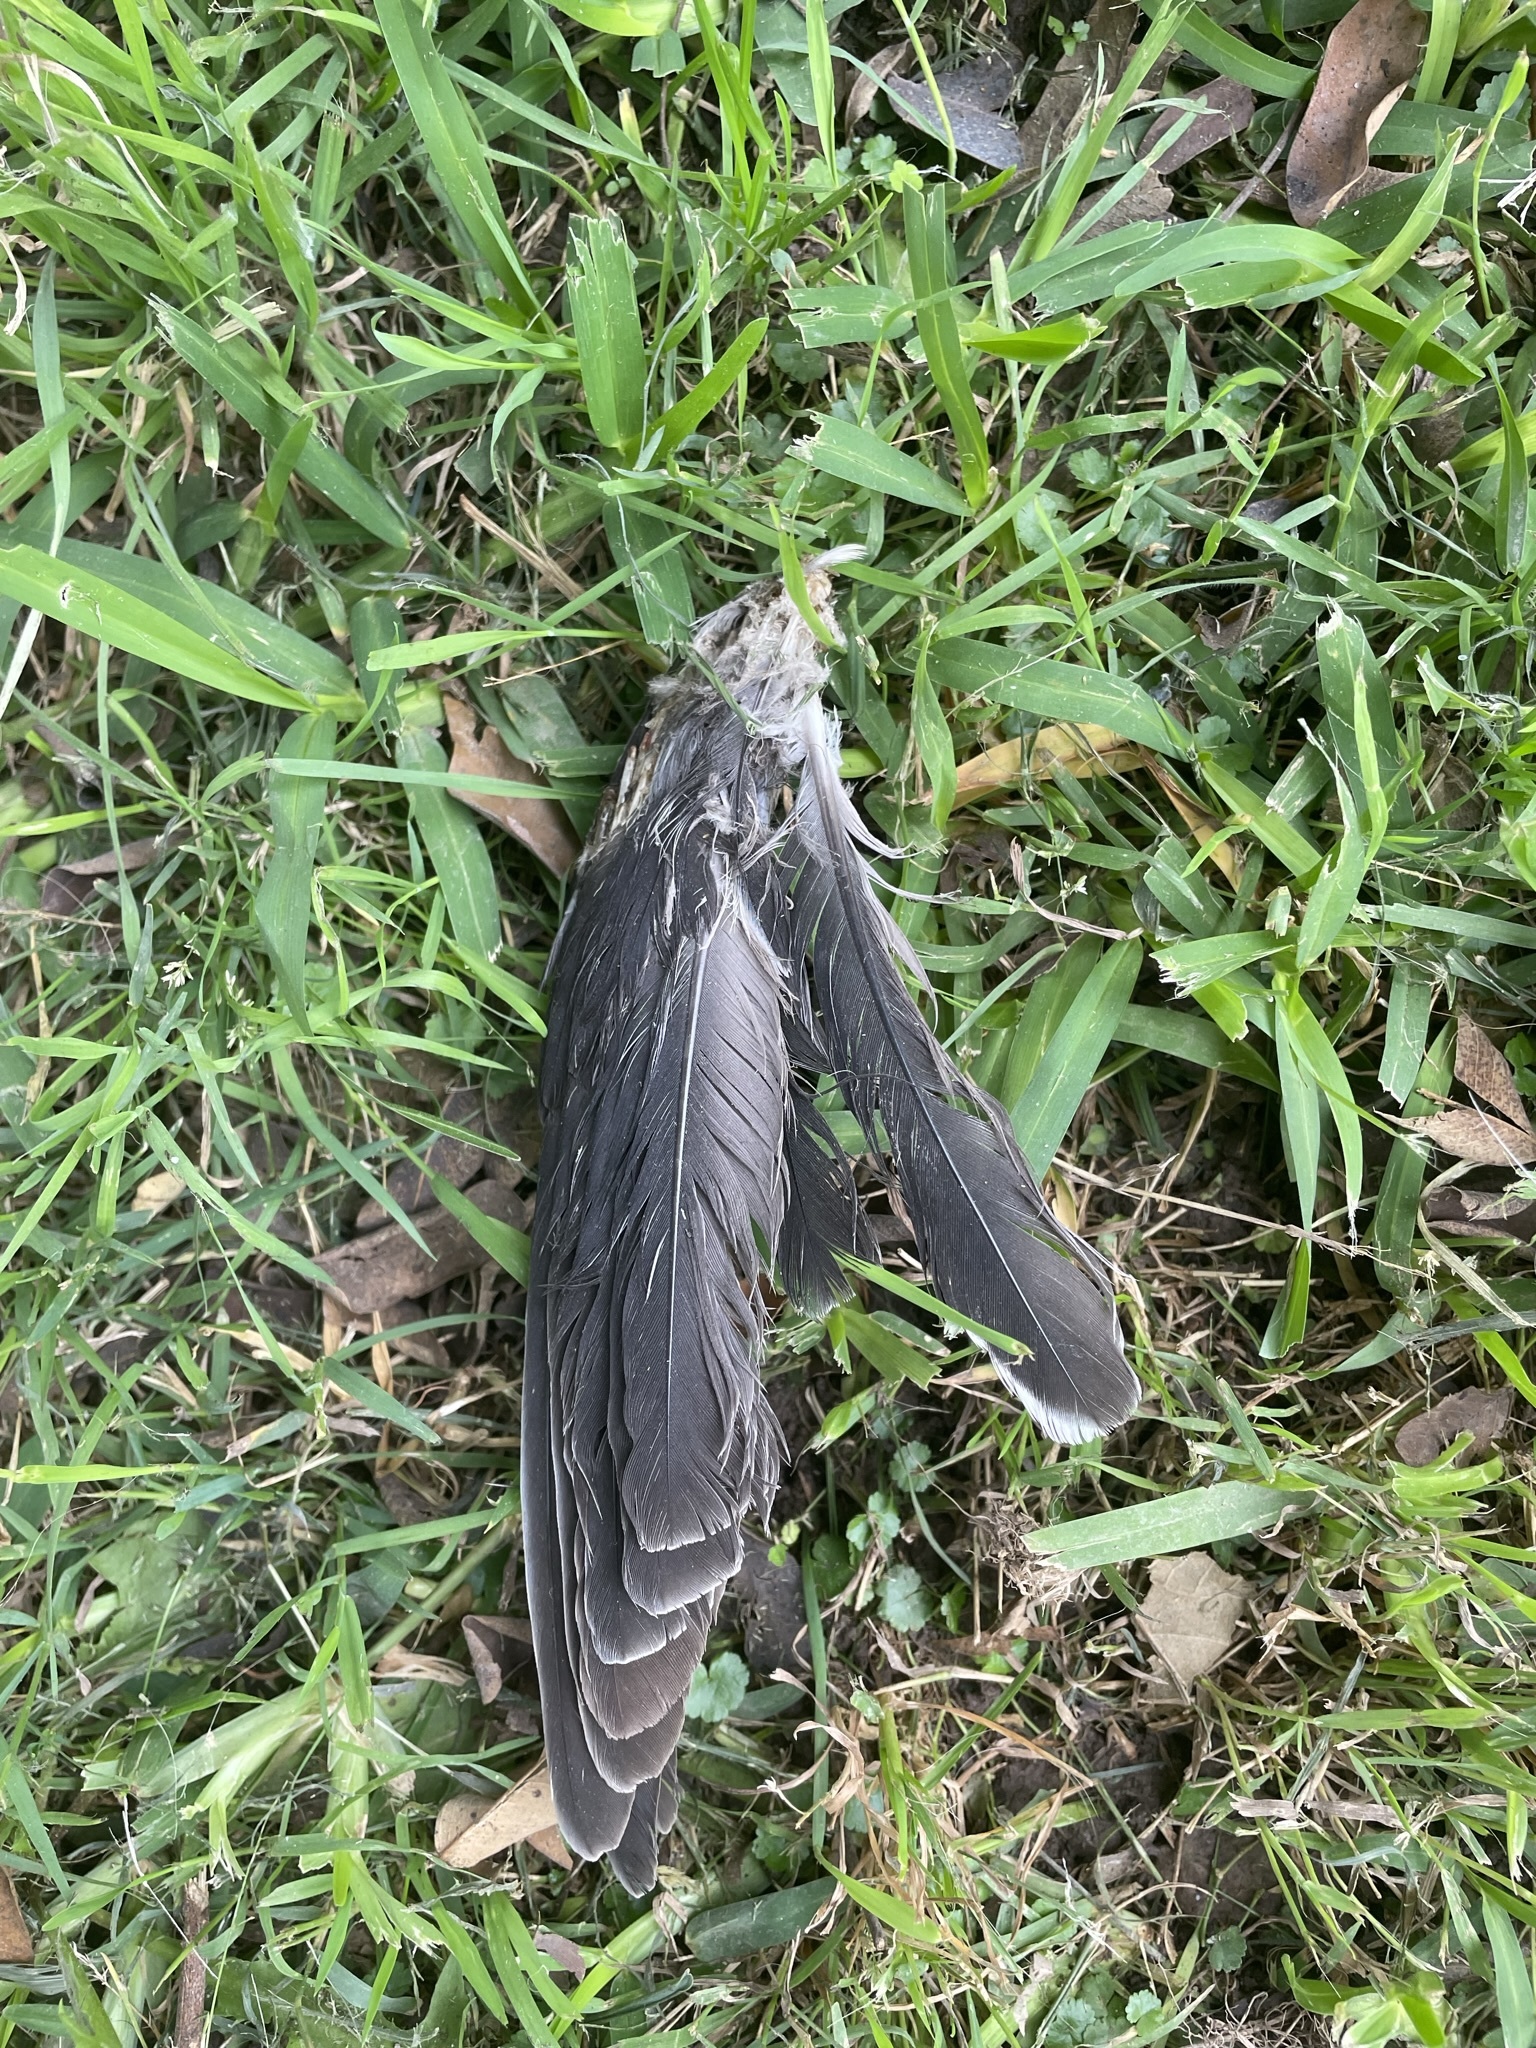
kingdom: Animalia
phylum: Chordata
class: Aves
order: Columbiformes
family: Columbidae
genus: Zenaida
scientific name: Zenaida meloda
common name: West peruvian dove
